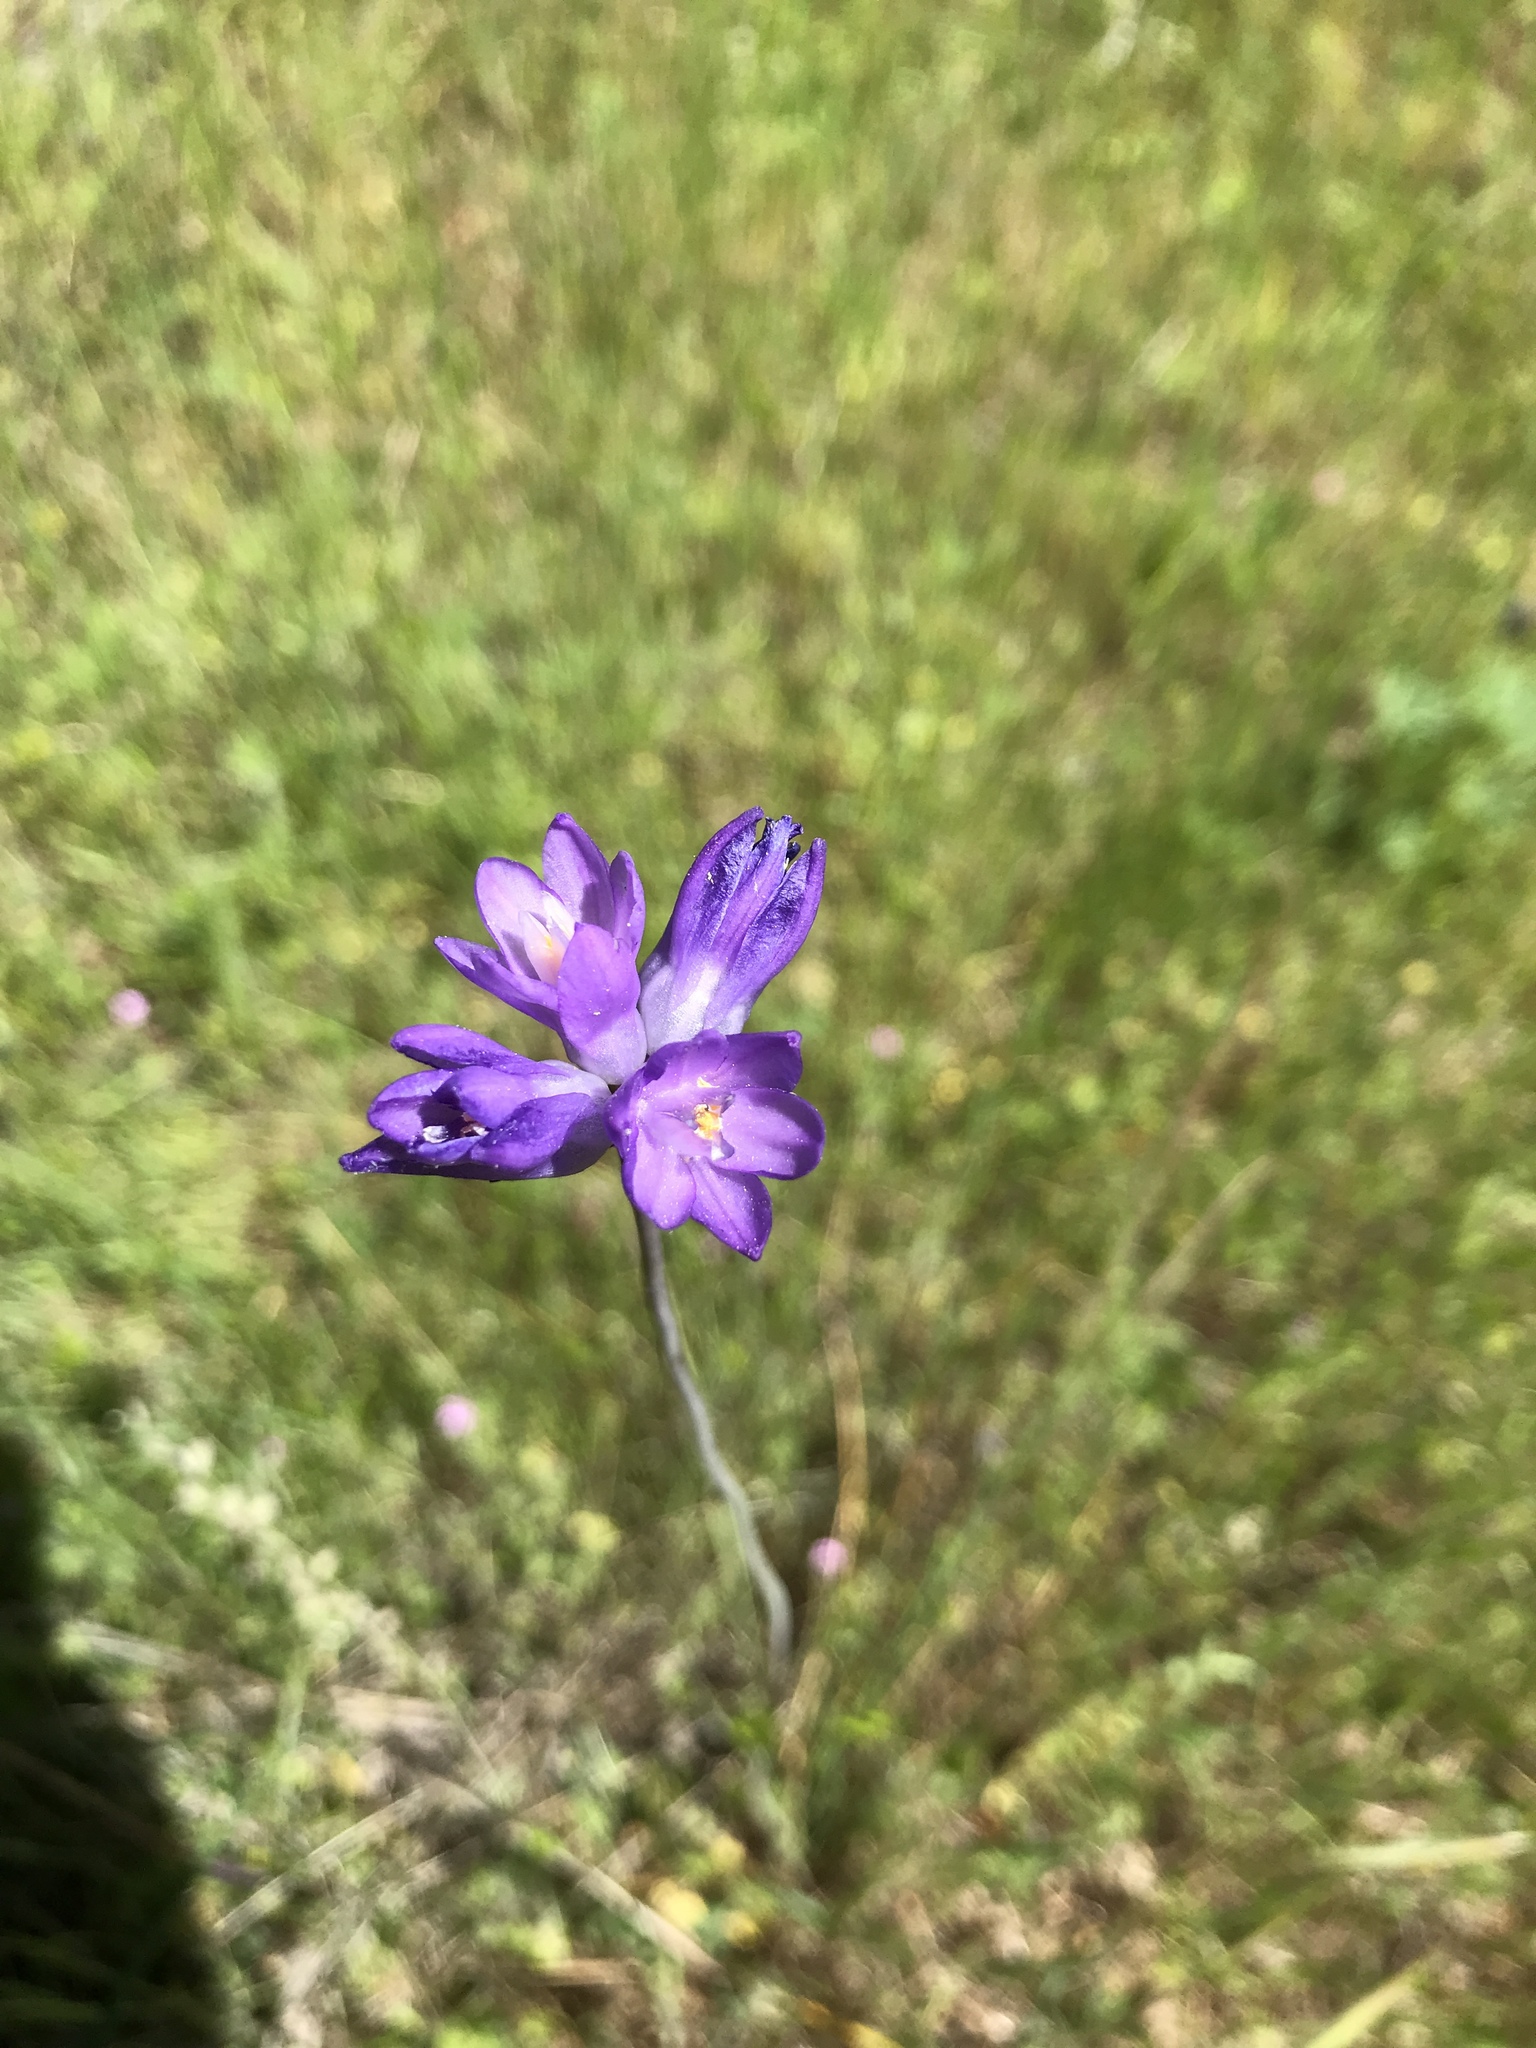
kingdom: Plantae
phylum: Tracheophyta
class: Liliopsida
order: Asparagales
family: Asparagaceae
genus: Dipterostemon
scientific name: Dipterostemon capitatus
